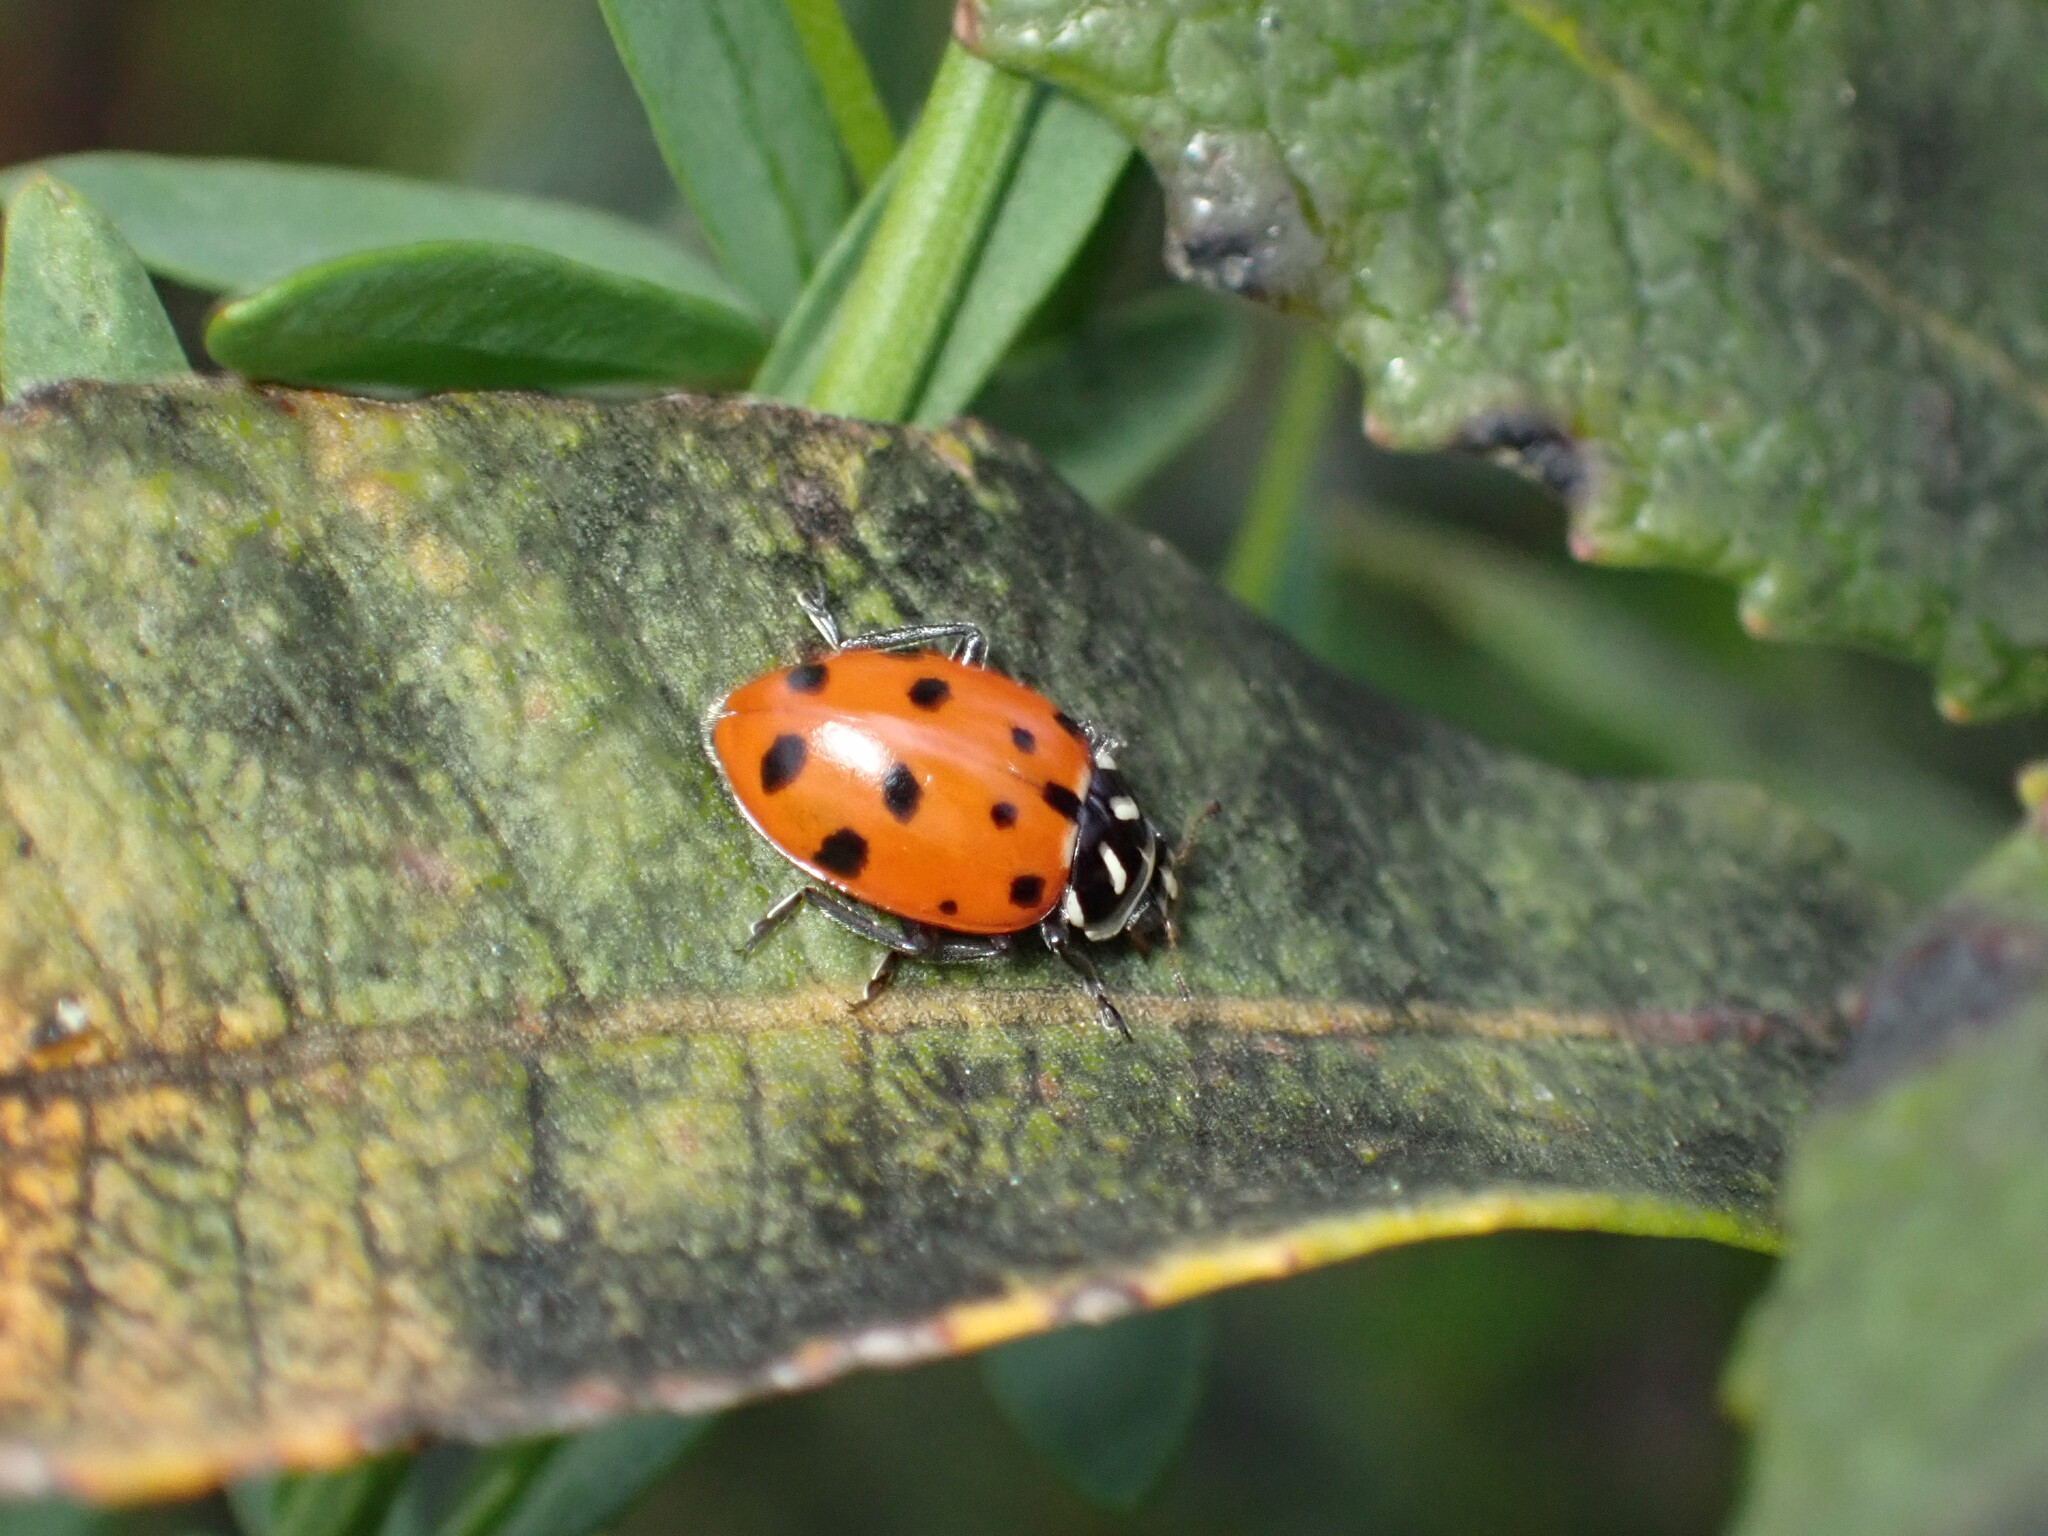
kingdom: Animalia
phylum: Arthropoda
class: Insecta
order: Coleoptera
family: Coccinellidae
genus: Hippodamia
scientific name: Hippodamia convergens
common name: Convergent lady beetle
